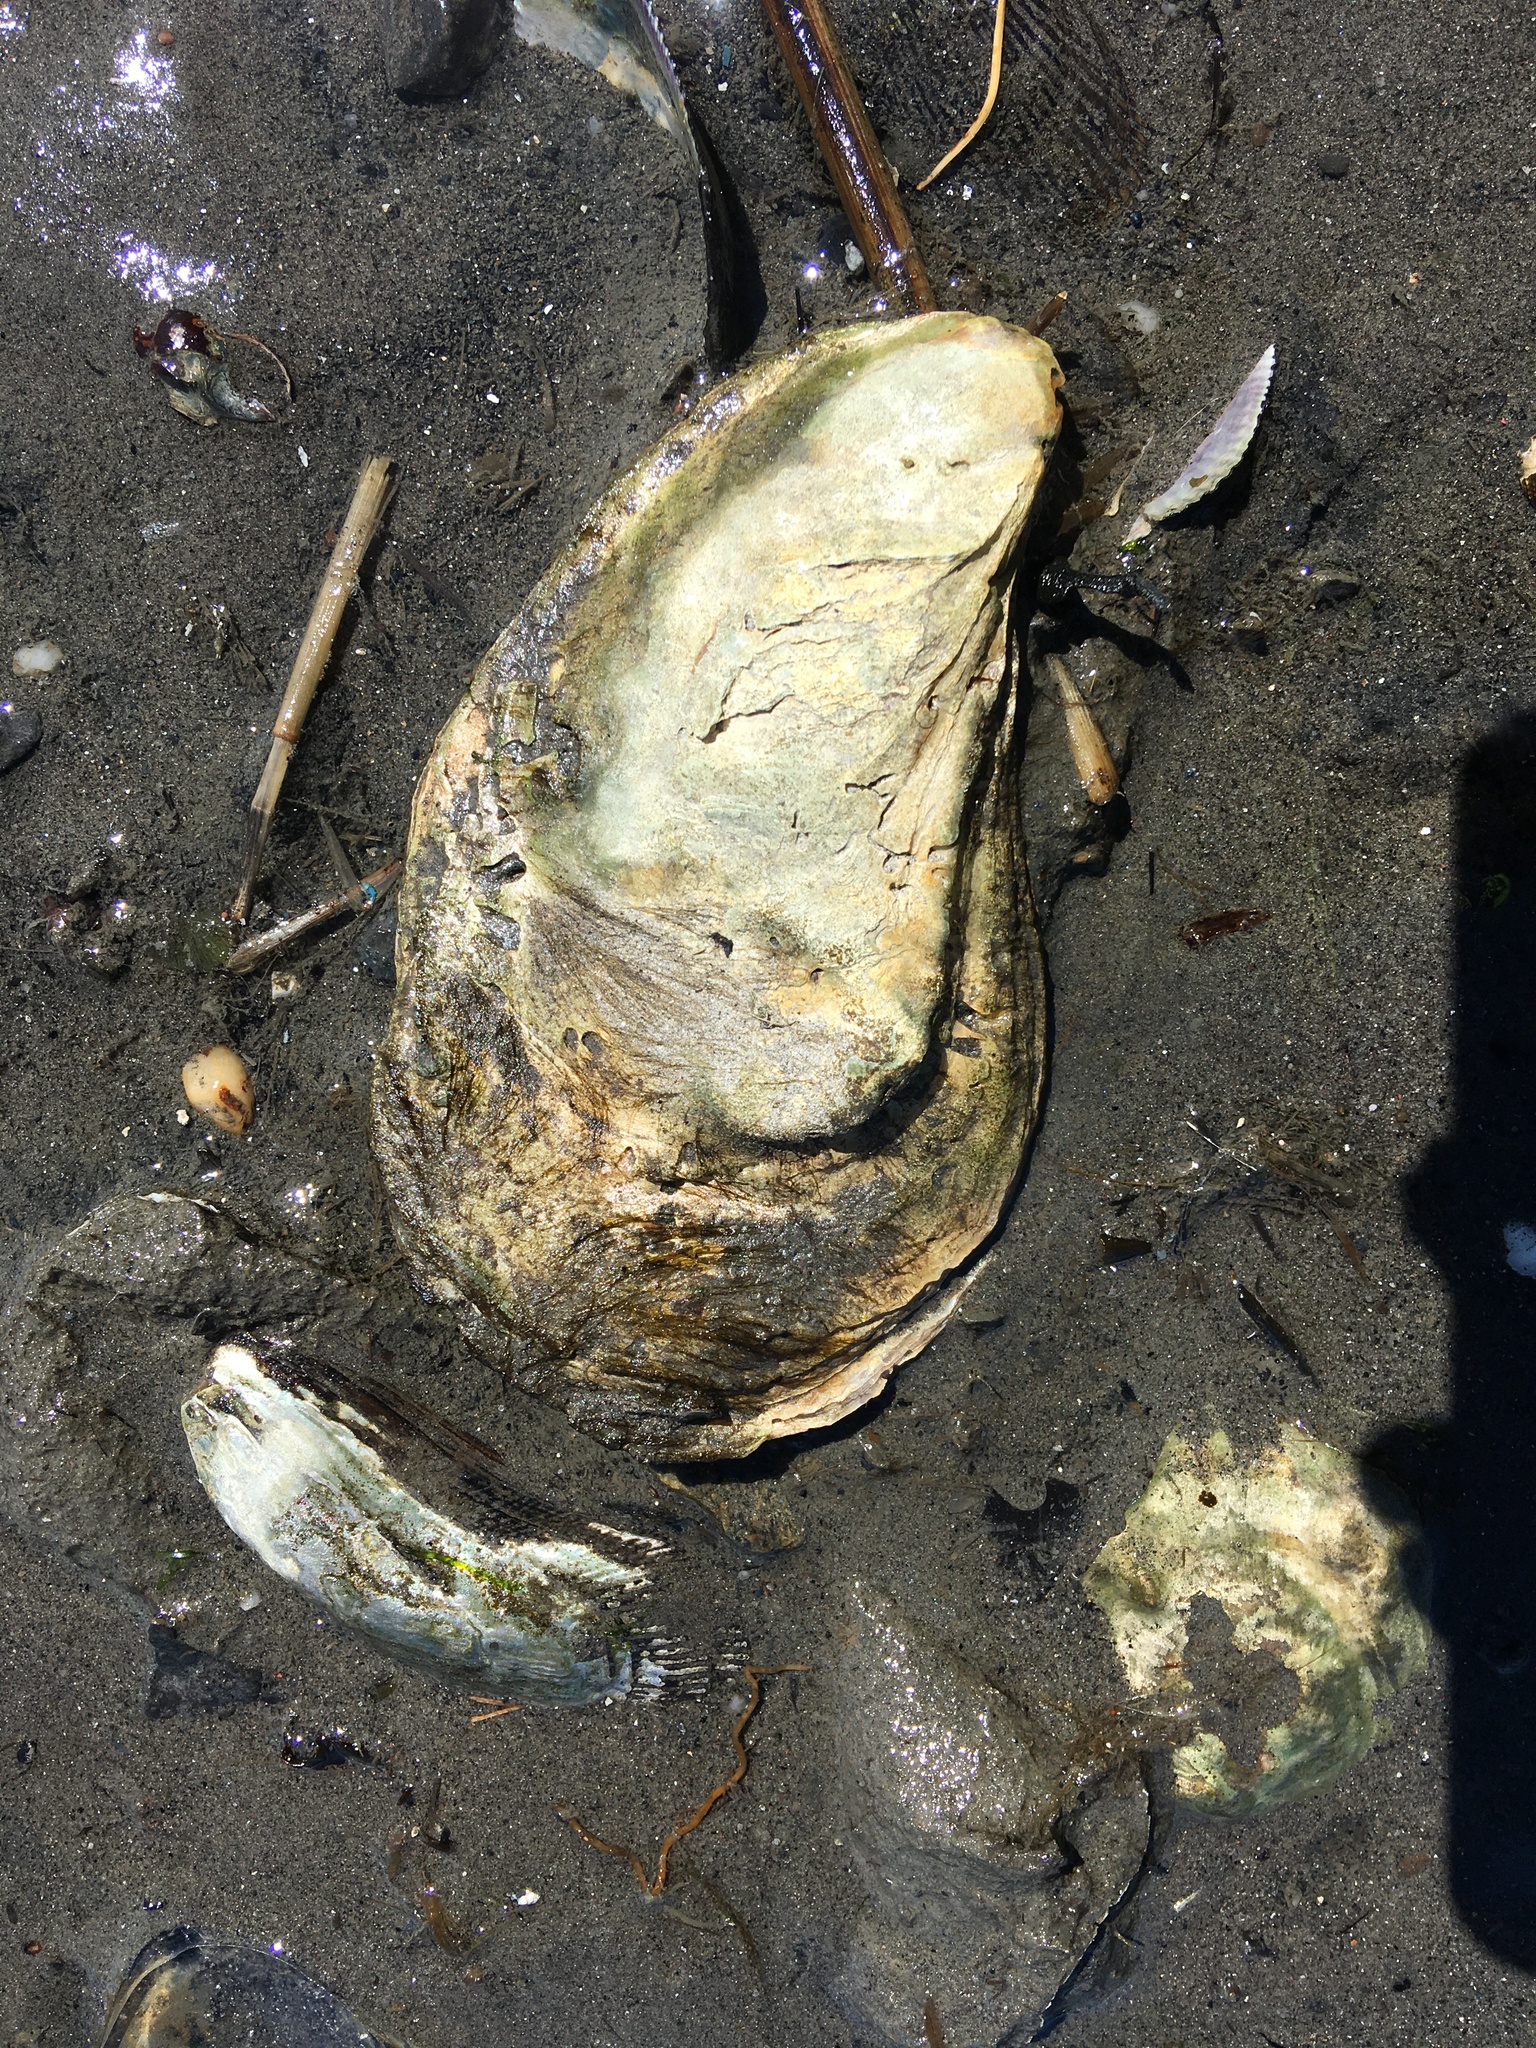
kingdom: Animalia
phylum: Mollusca
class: Bivalvia
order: Ostreida
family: Ostreidae
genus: Crassostrea
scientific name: Crassostrea virginica
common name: American oyster
